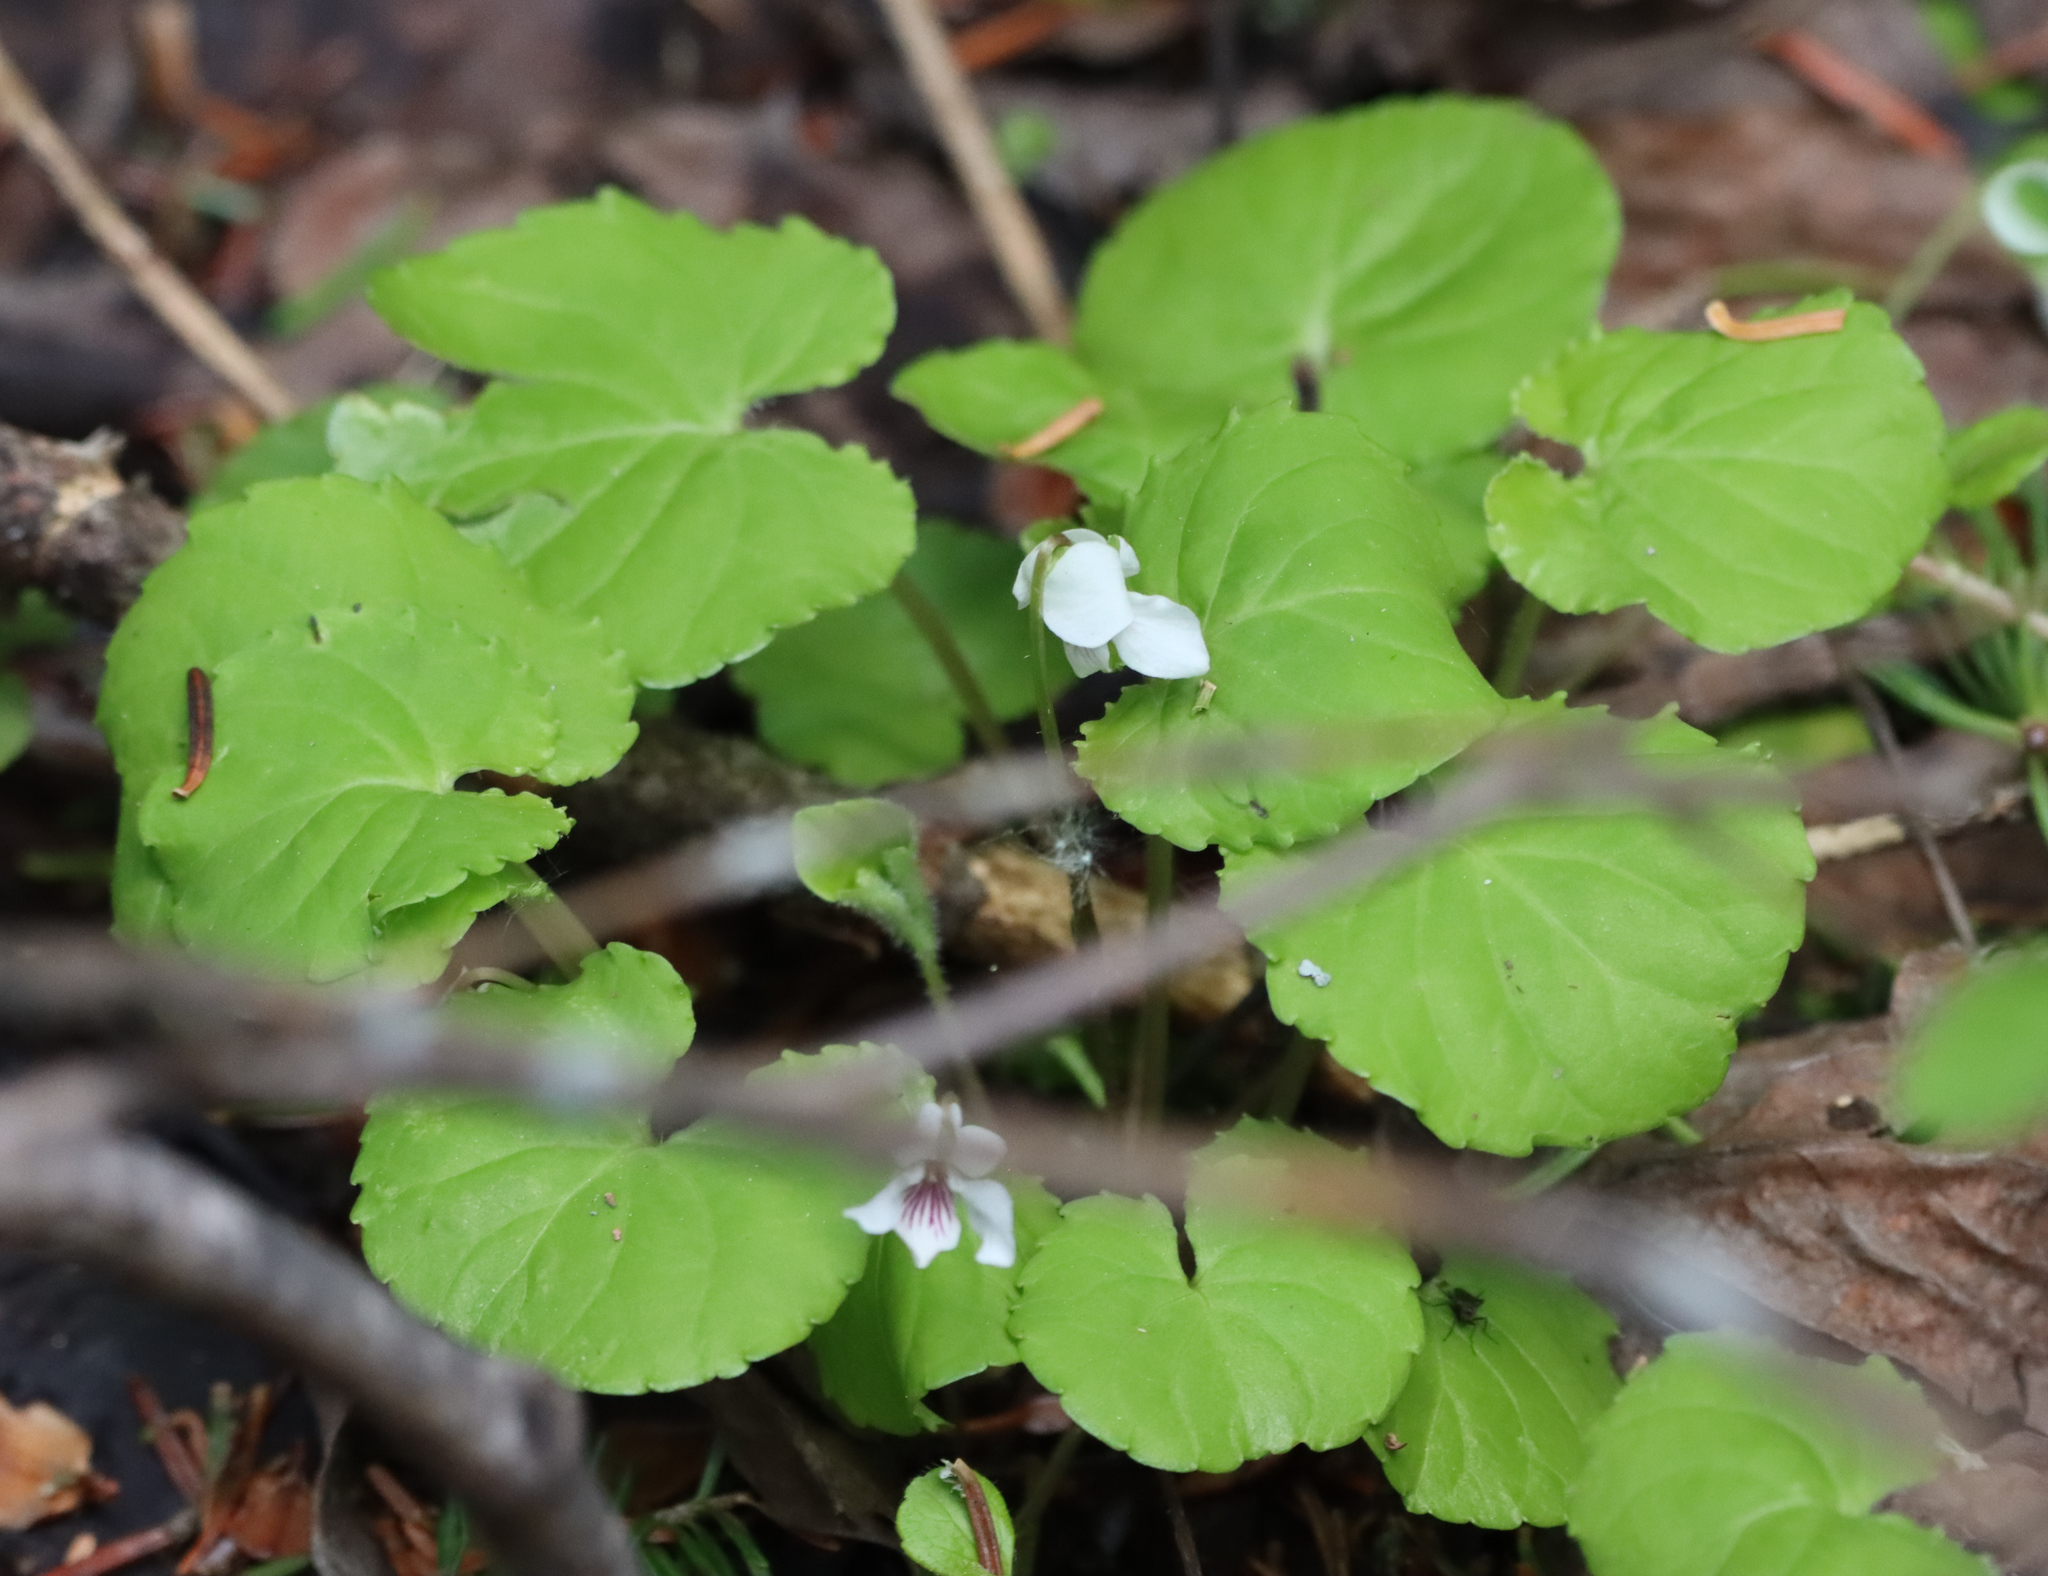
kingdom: Plantae
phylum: Tracheophyta
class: Magnoliopsida
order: Malpighiales
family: Violaceae
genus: Viola
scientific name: Viola renifolia
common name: Kidney-leaf violet
